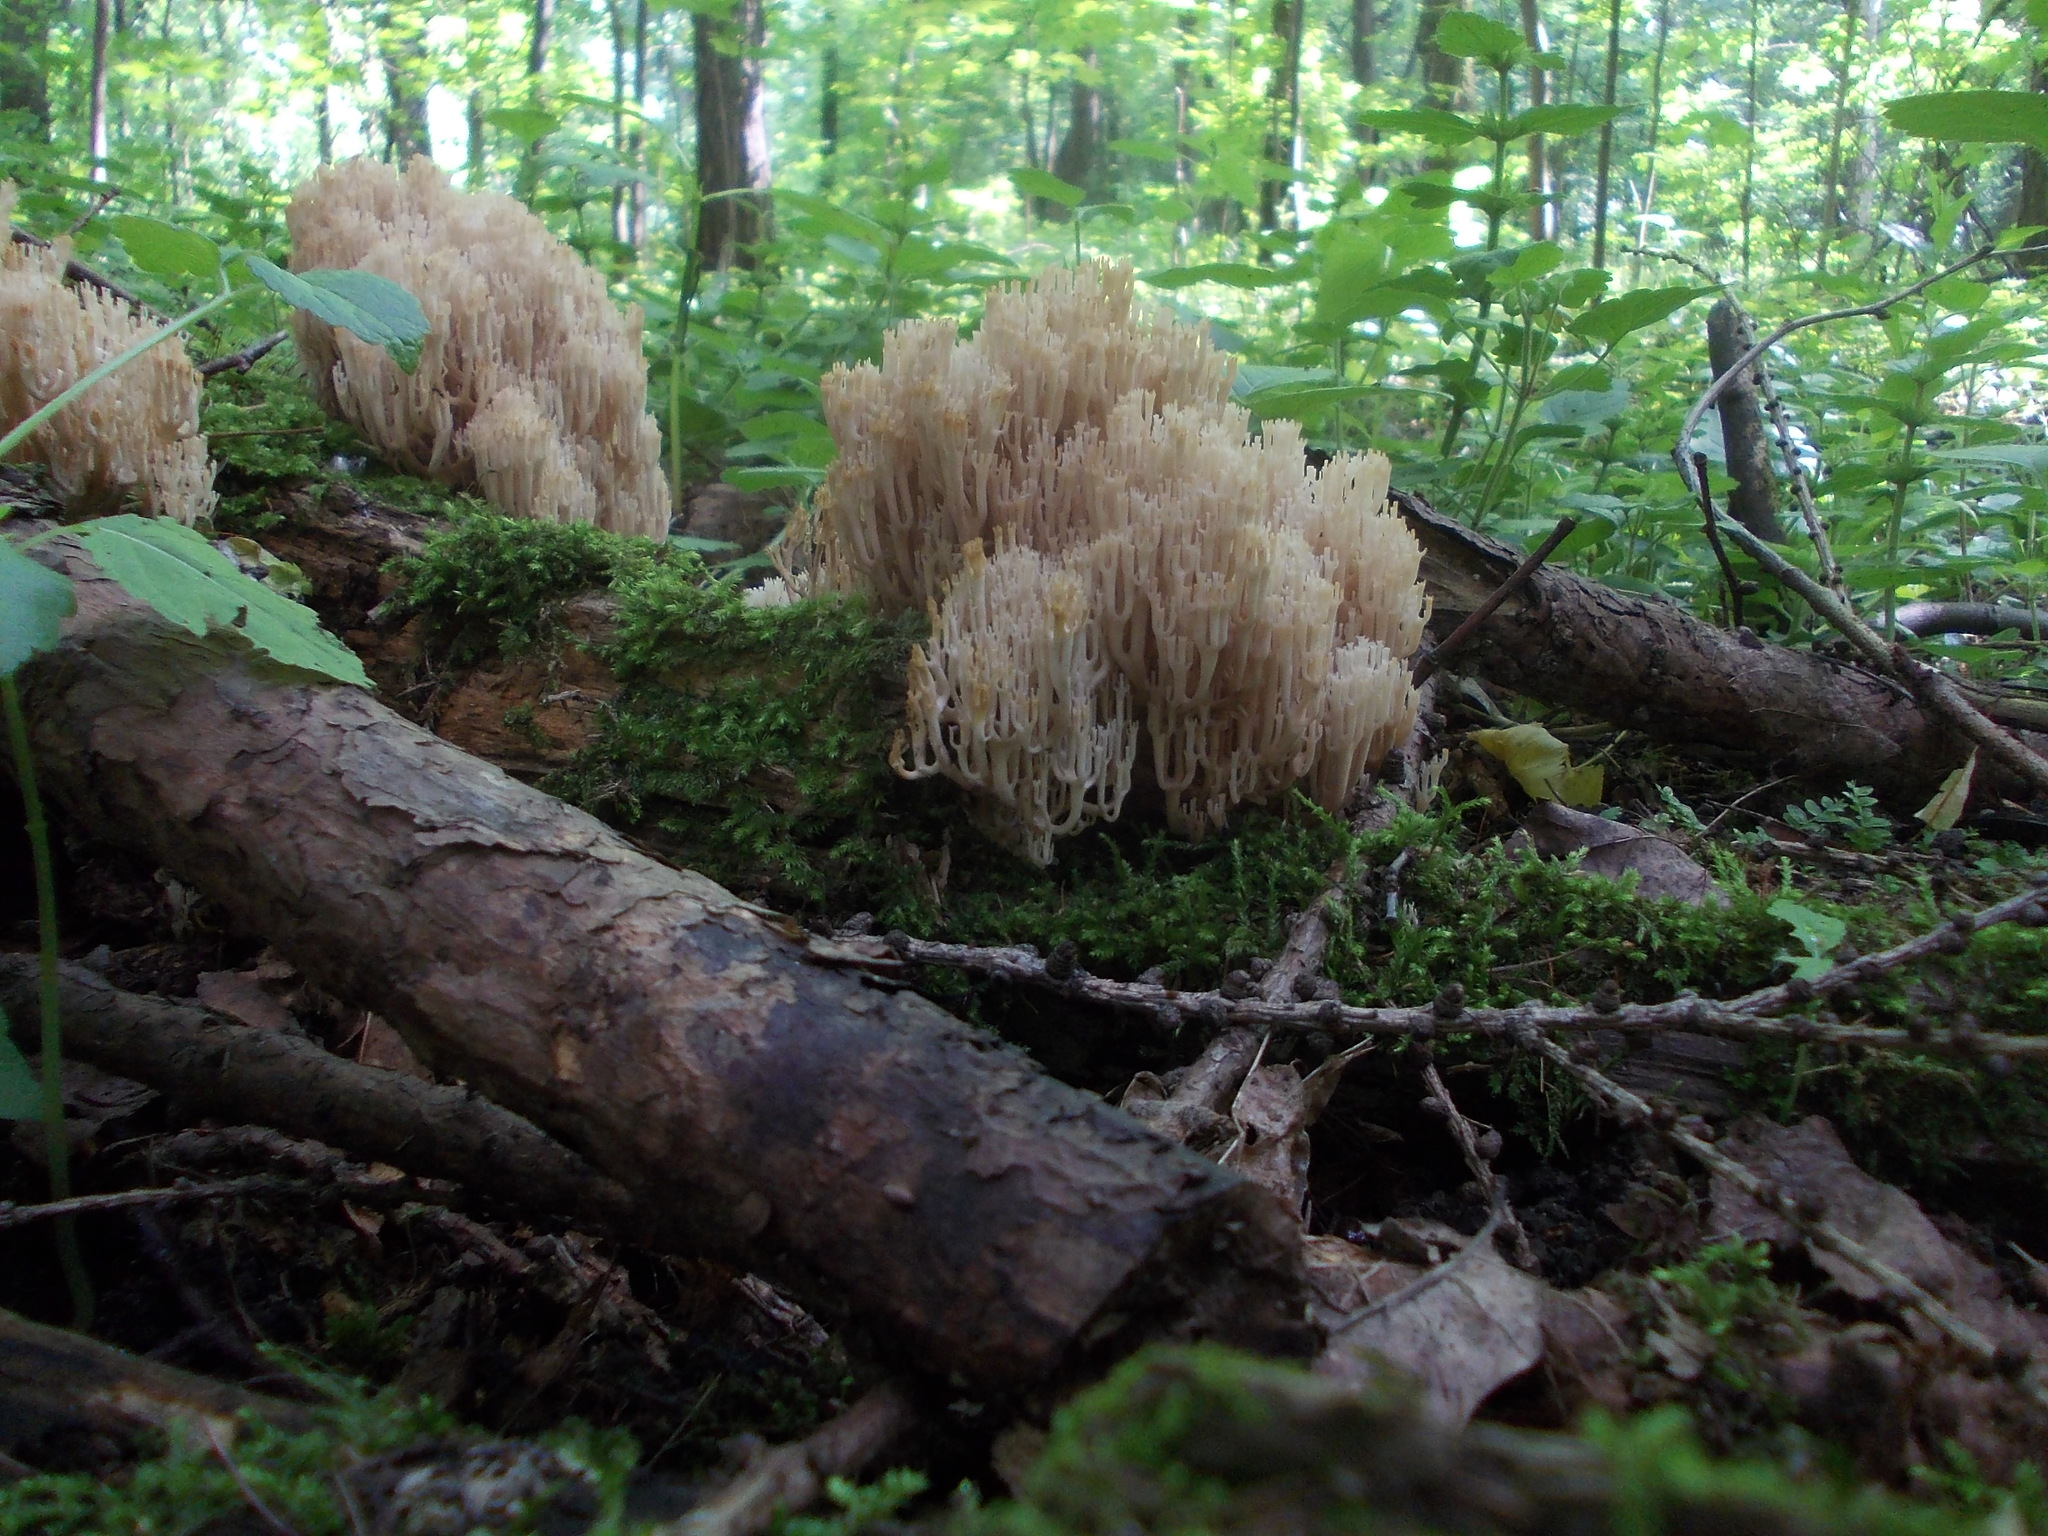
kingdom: Fungi
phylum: Basidiomycota
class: Agaricomycetes
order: Russulales
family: Auriscalpiaceae
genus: Artomyces
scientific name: Artomyces pyxidatus
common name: Crown-tipped coral fungus
